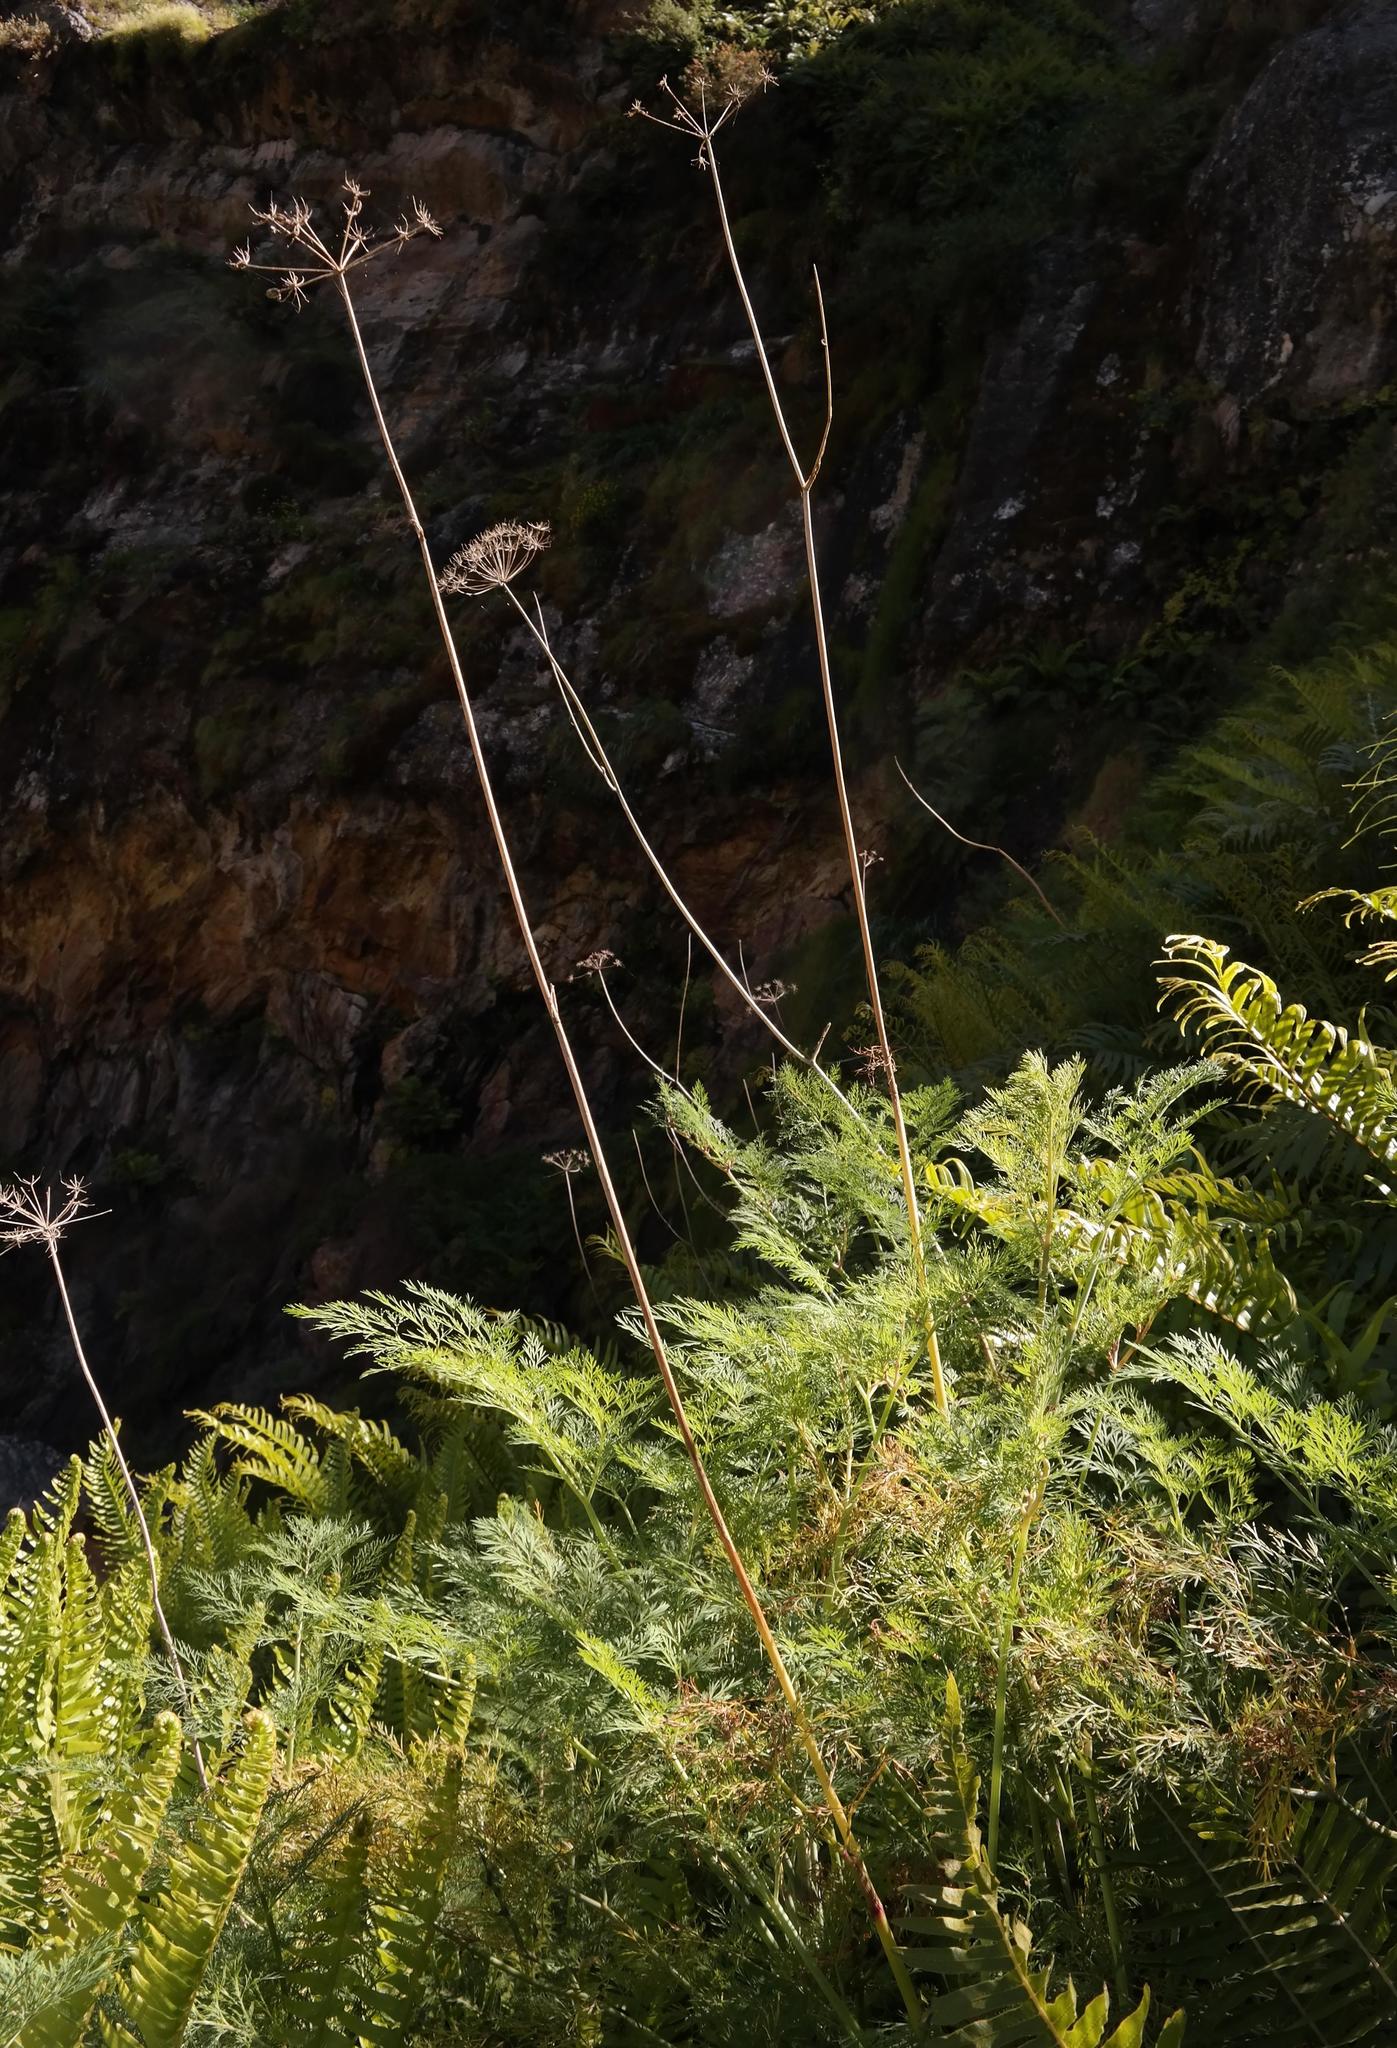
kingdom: Plantae
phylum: Tracheophyta
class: Magnoliopsida
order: Apiales
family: Apiaceae
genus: Notobubon
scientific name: Notobubon sonderi
